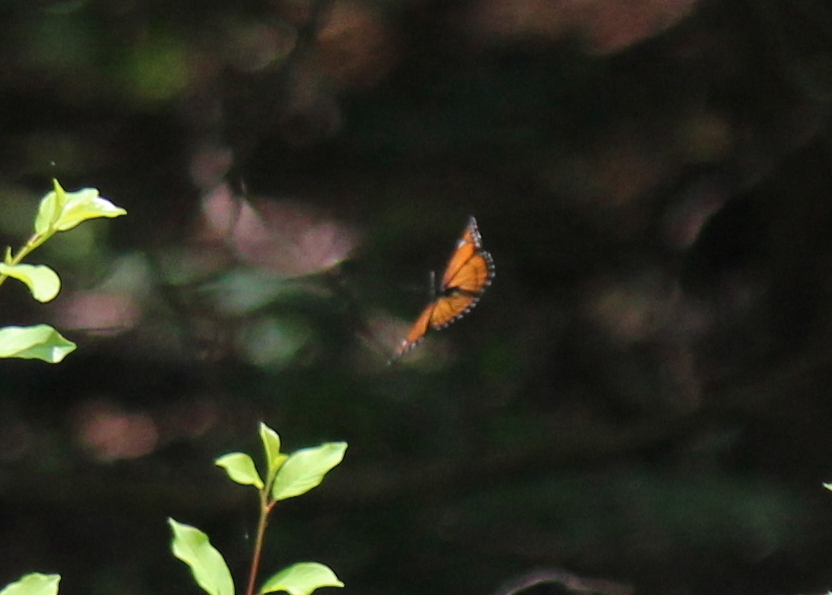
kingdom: Animalia
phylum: Arthropoda
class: Insecta
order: Lepidoptera
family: Nymphalidae
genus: Limenitis
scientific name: Limenitis archippus
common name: Viceroy
